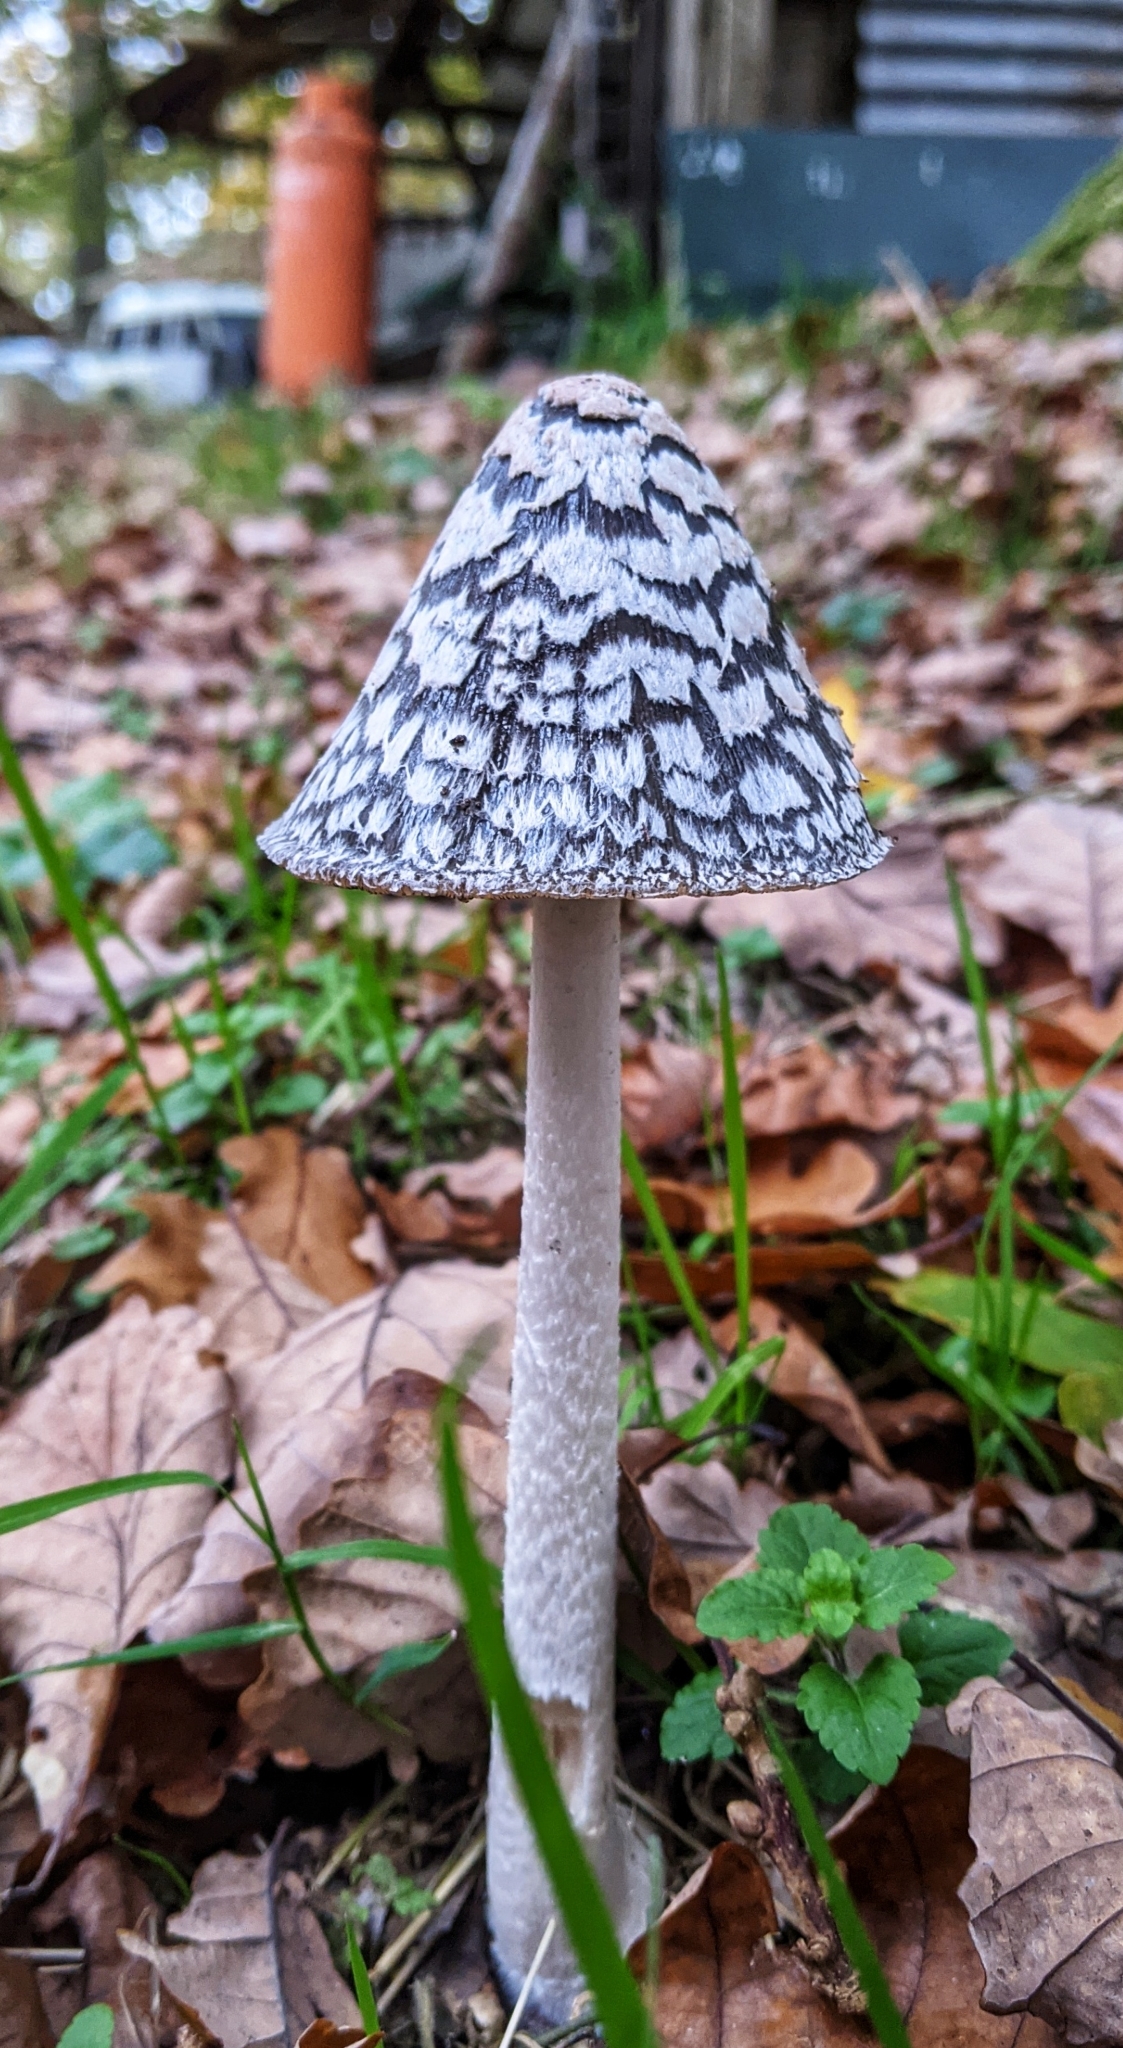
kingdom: Fungi
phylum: Basidiomycota
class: Agaricomycetes
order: Agaricales
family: Psathyrellaceae
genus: Coprinopsis
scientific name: Coprinopsis picacea
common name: Magpie inkcap
